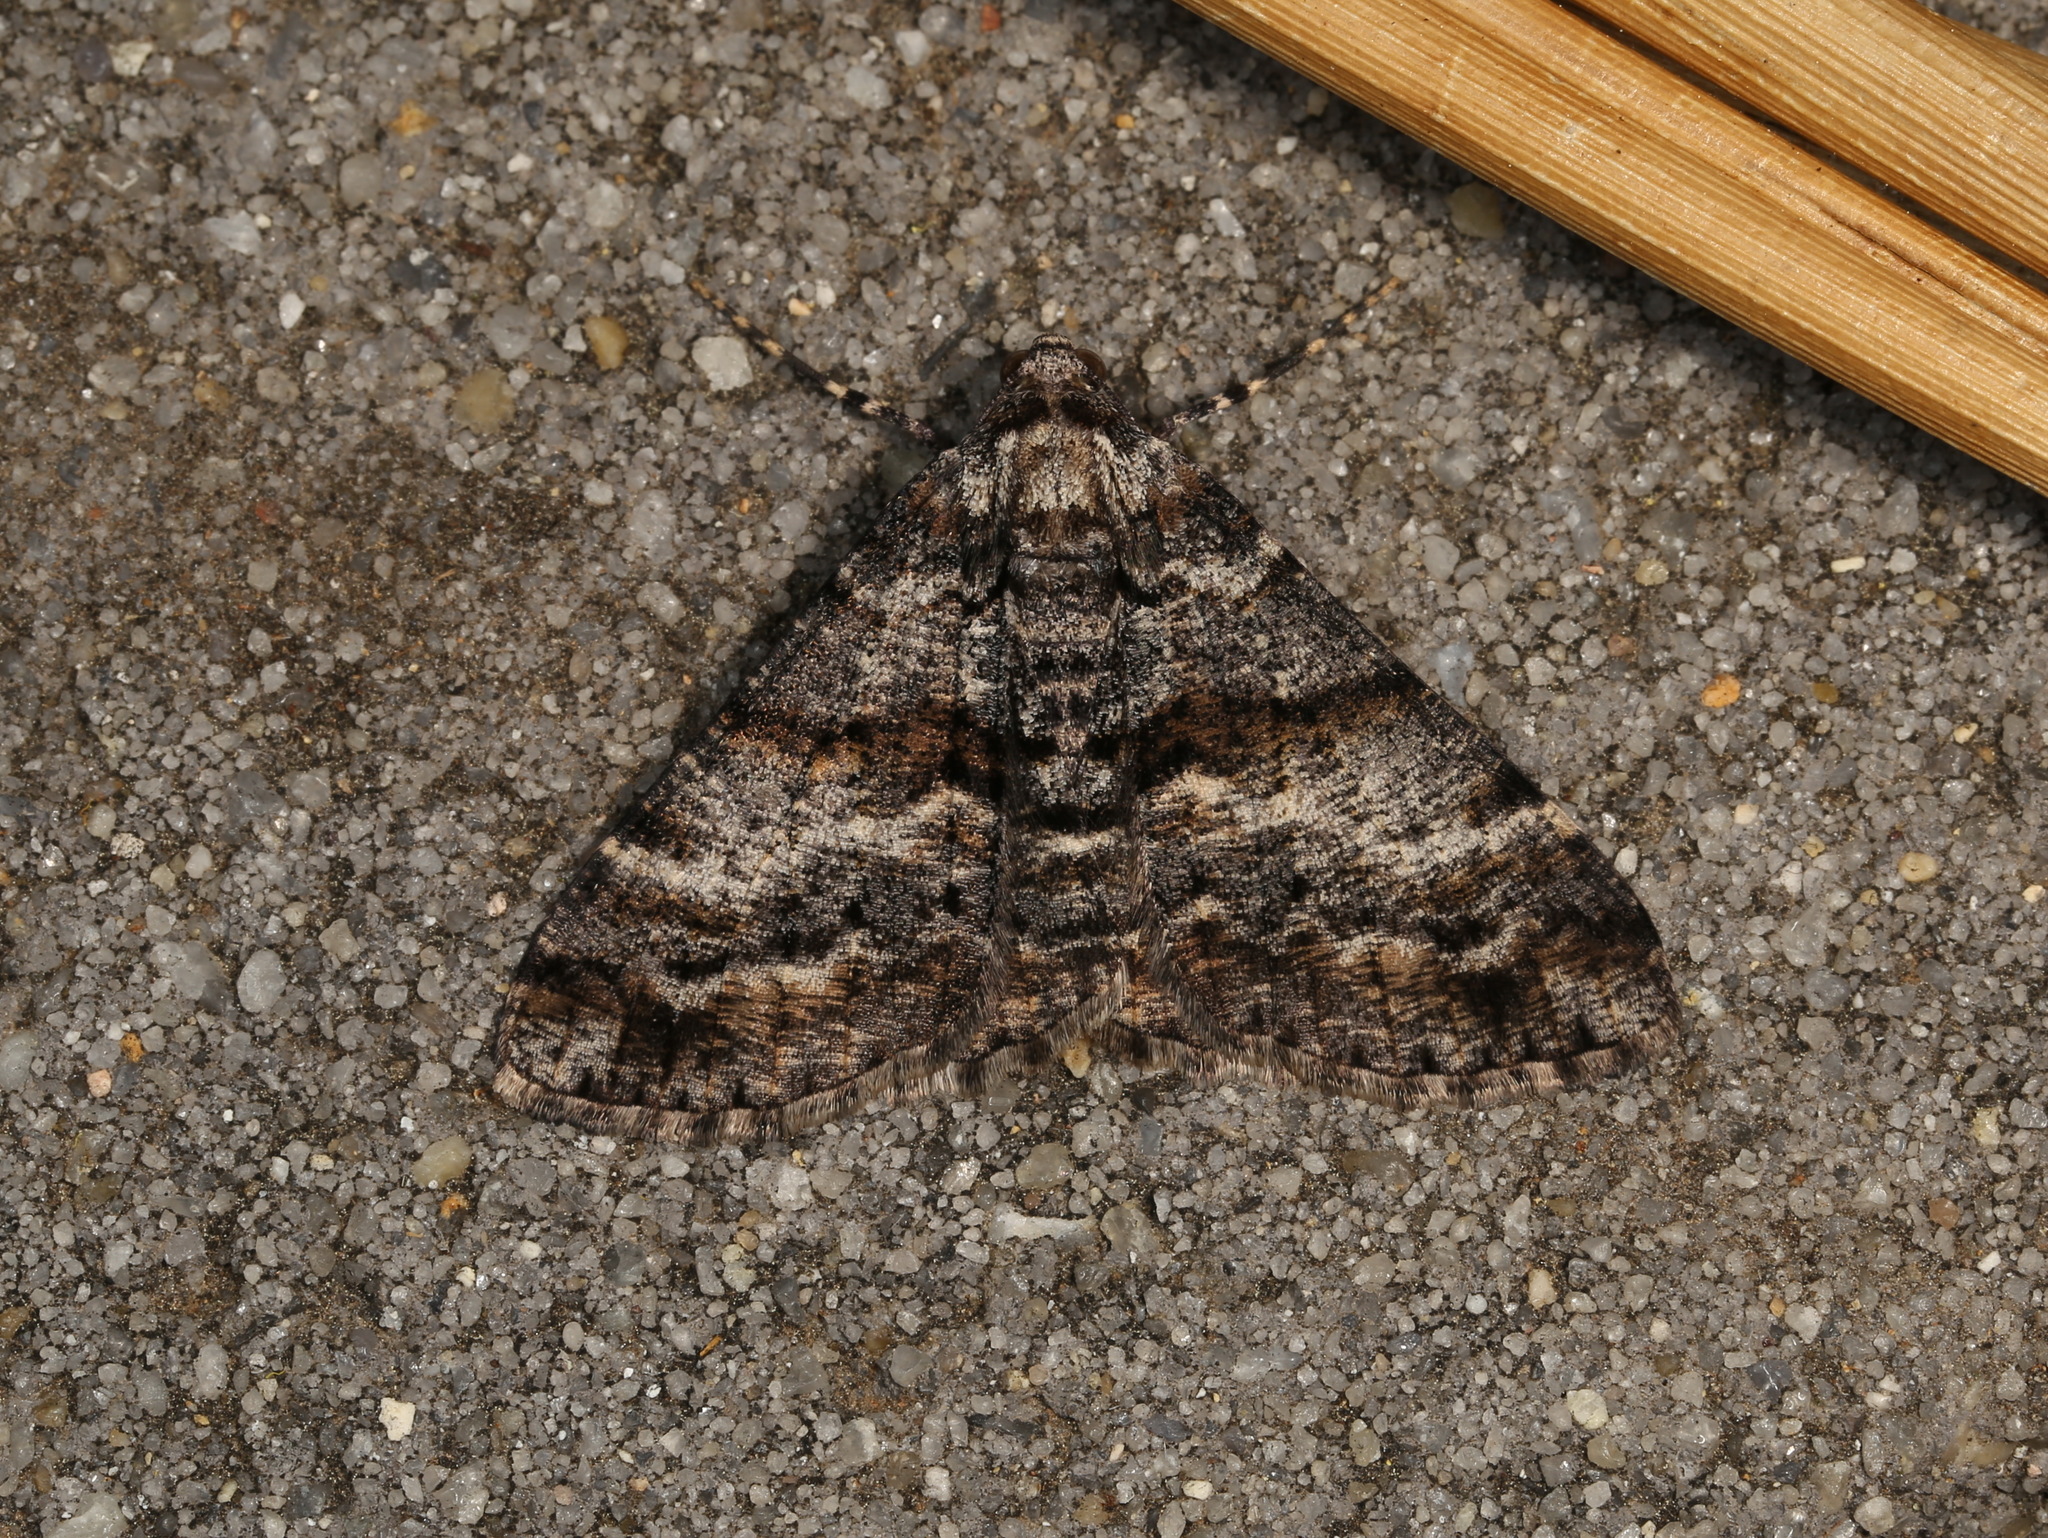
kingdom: Animalia
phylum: Arthropoda
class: Insecta
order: Lepidoptera
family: Geometridae
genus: Gastrinodes
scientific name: Gastrinodes argoplaca
